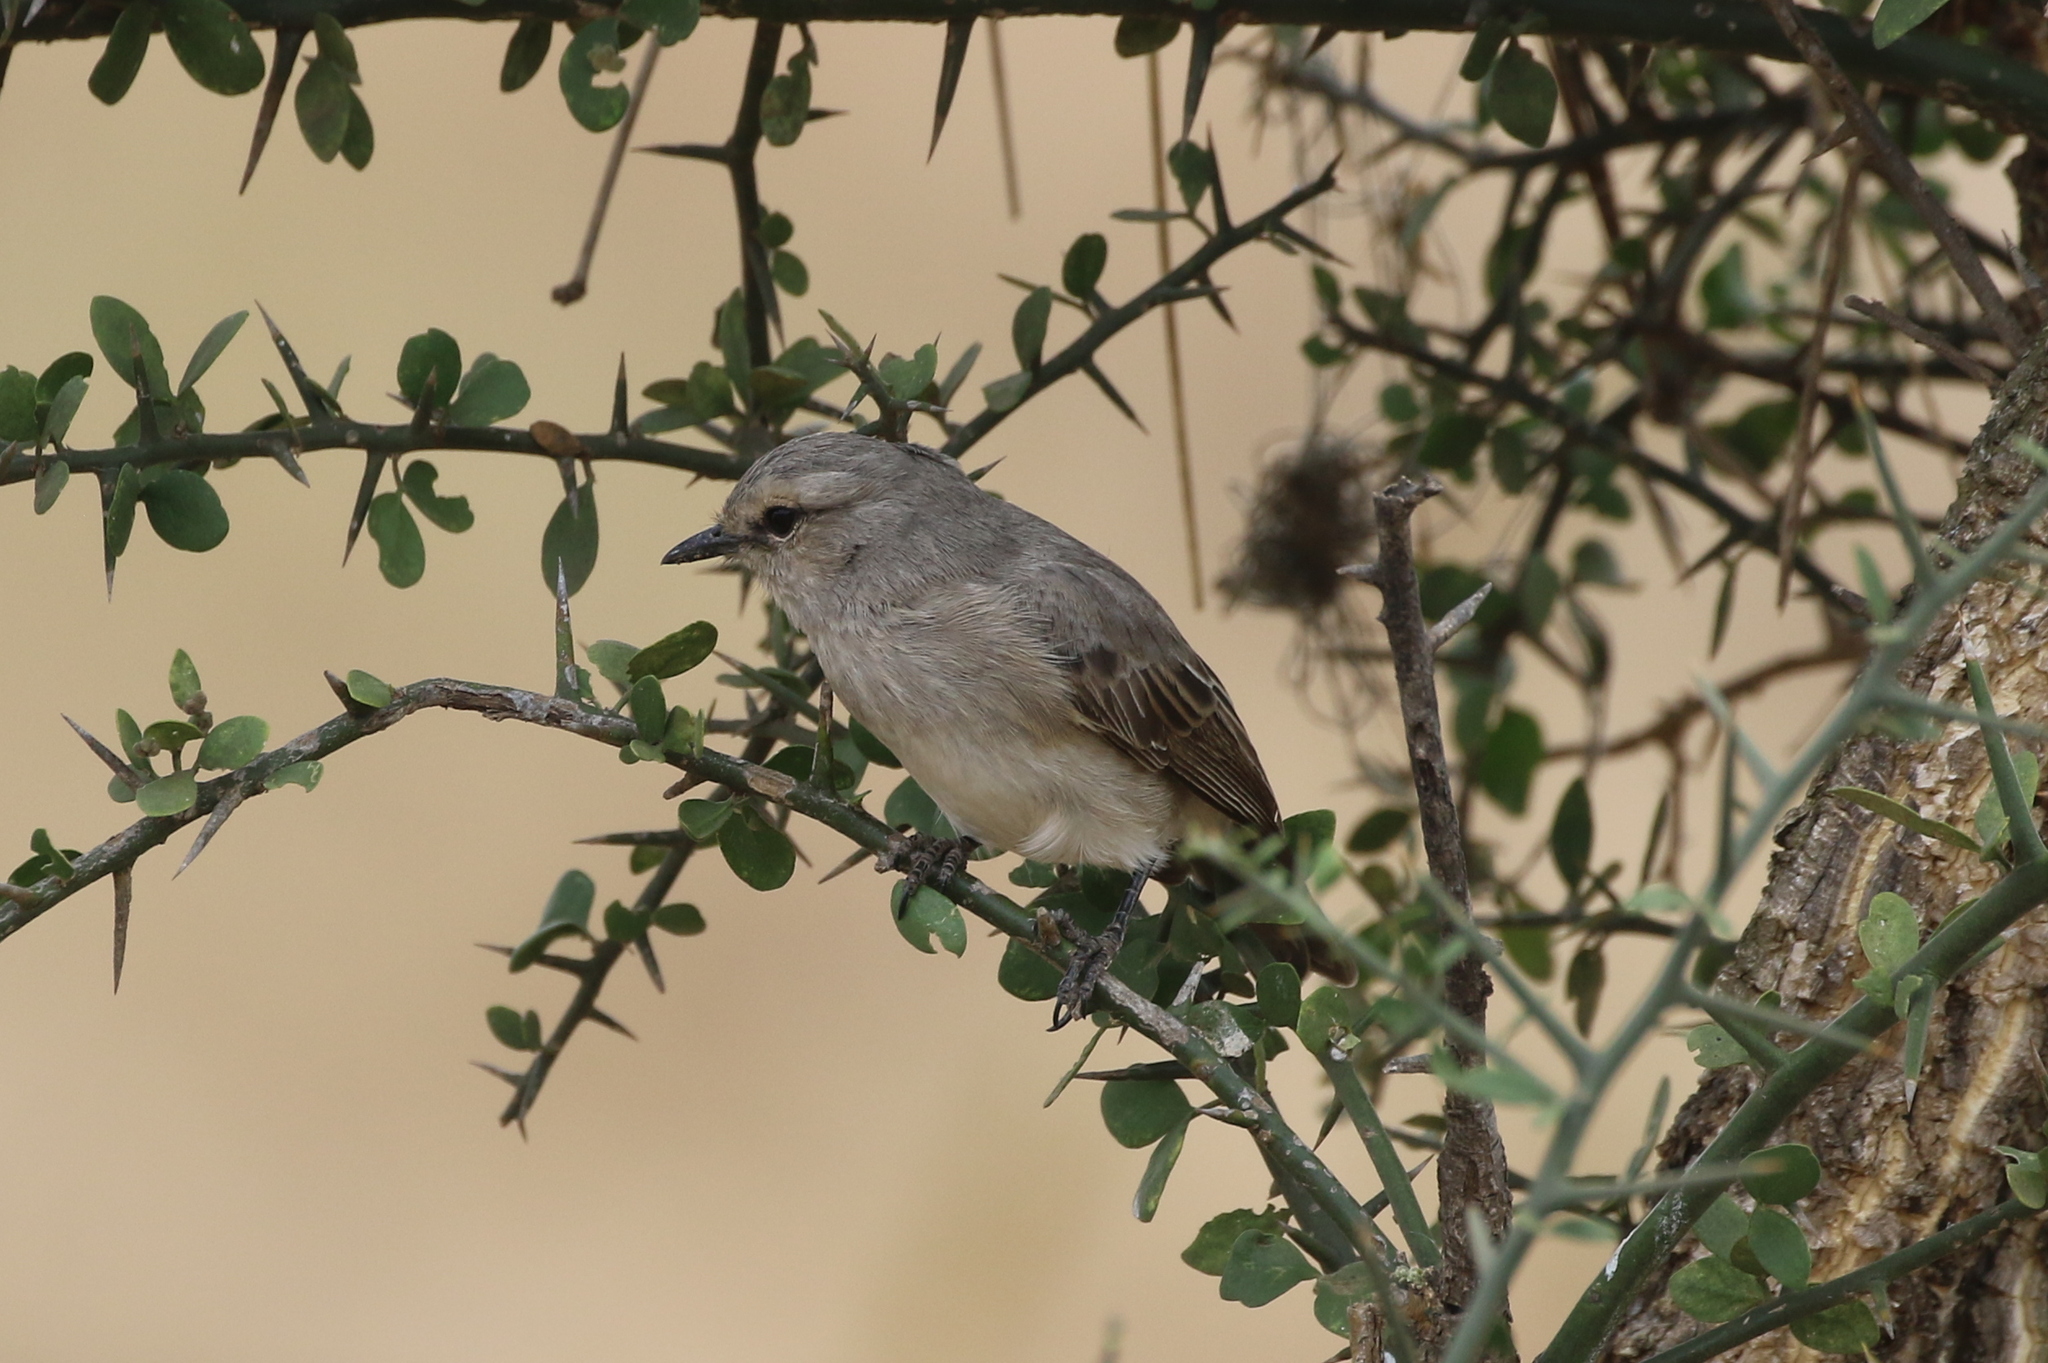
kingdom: Animalia
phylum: Chordata
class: Aves
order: Passeriformes
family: Muscicapidae
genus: Bradornis
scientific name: Bradornis microrhynchus
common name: African grey flycatcher
